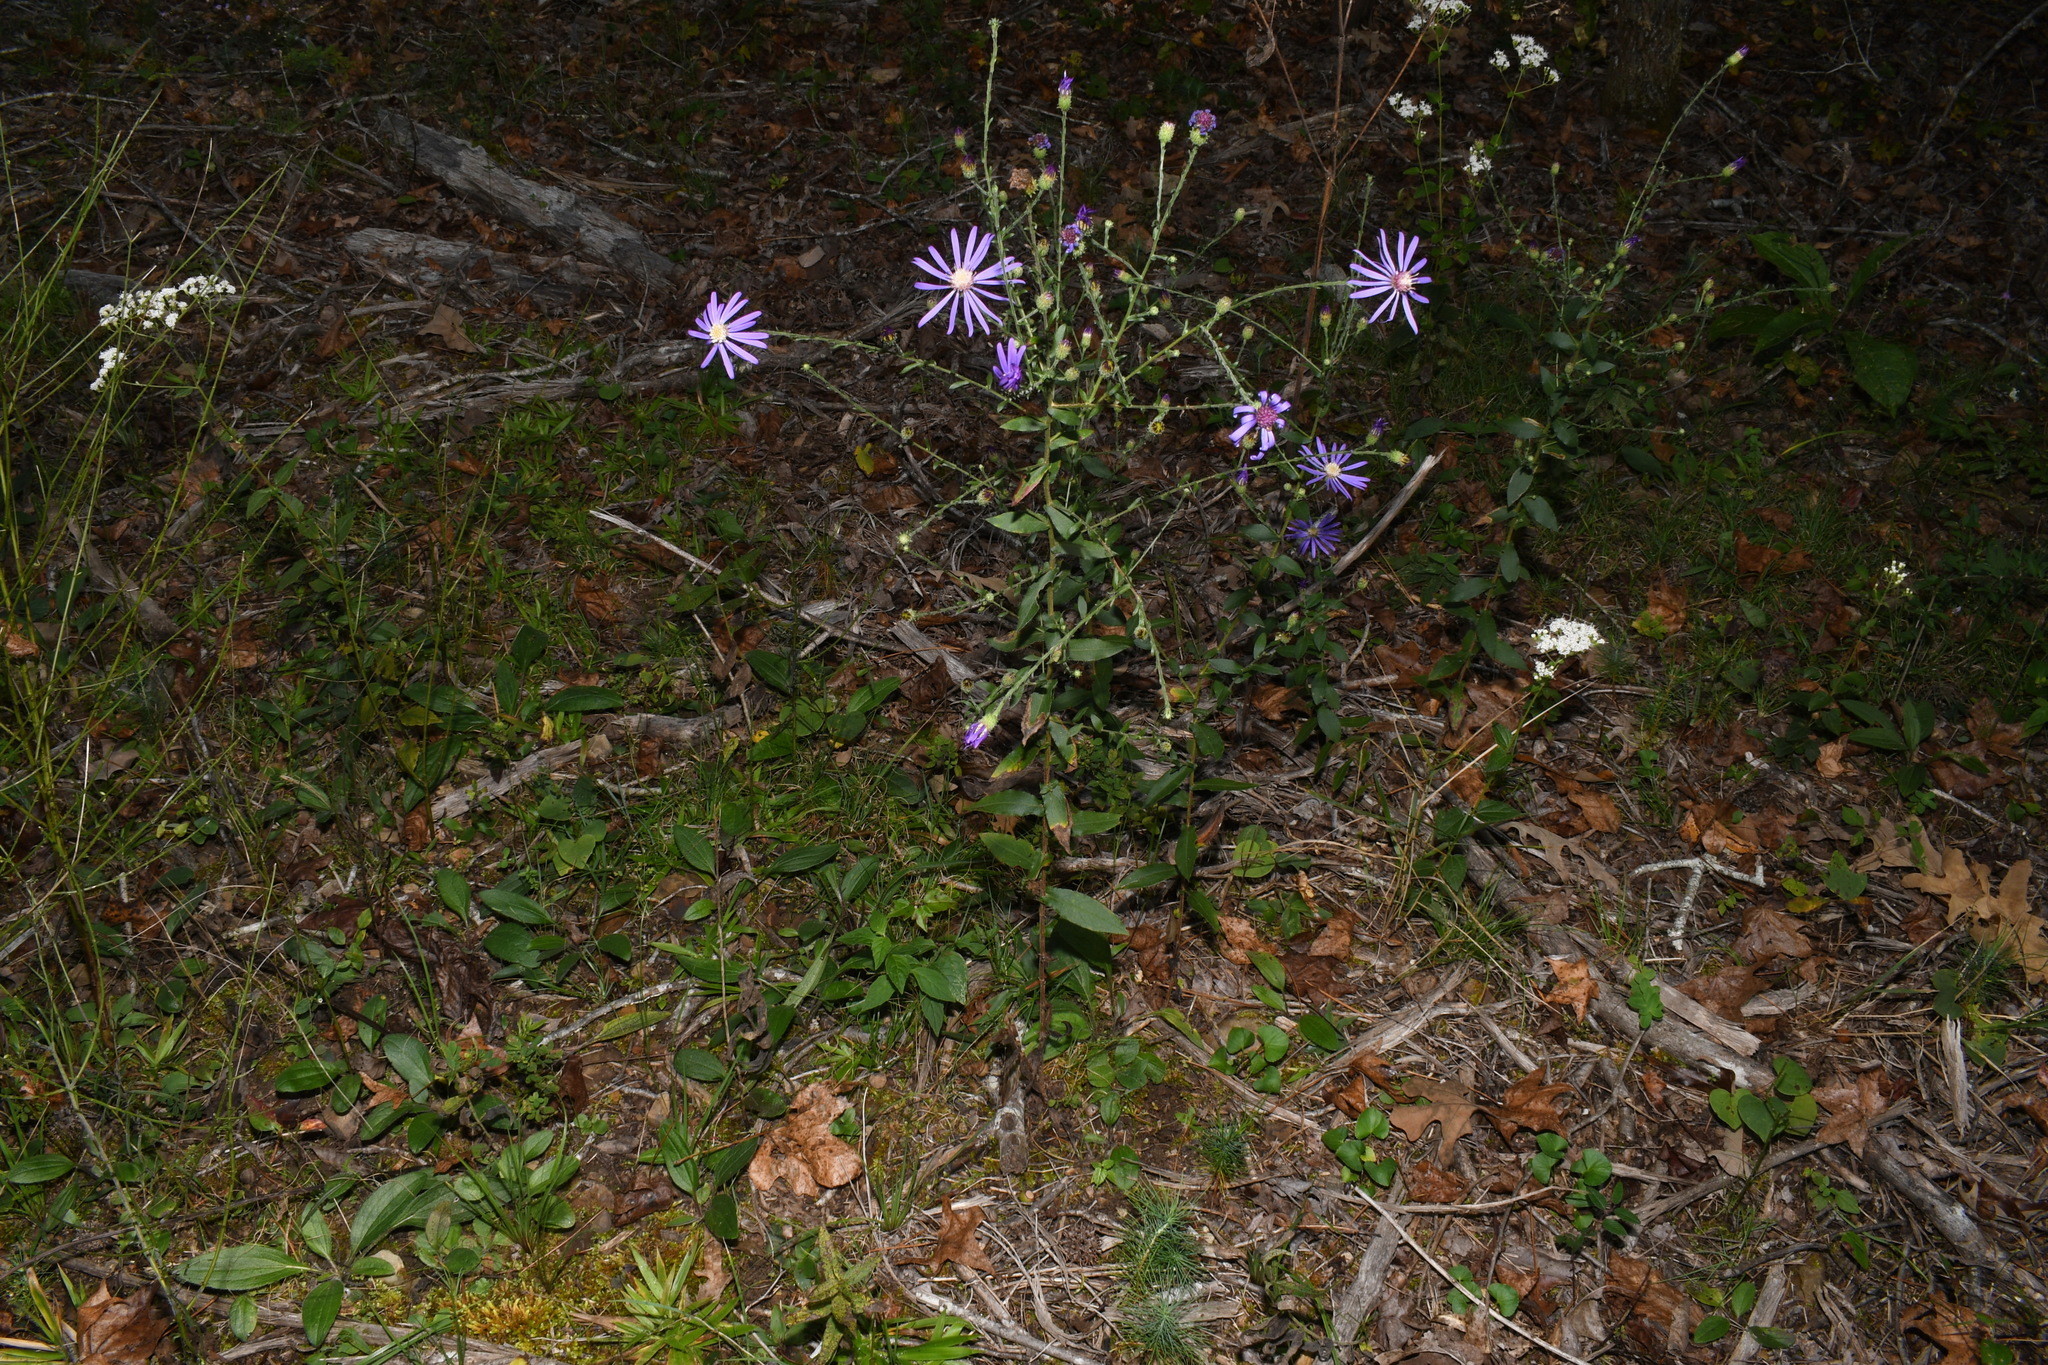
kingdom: Plantae
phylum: Tracheophyta
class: Magnoliopsida
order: Asterales
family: Asteraceae
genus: Symphyotrichum
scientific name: Symphyotrichum georgianum
